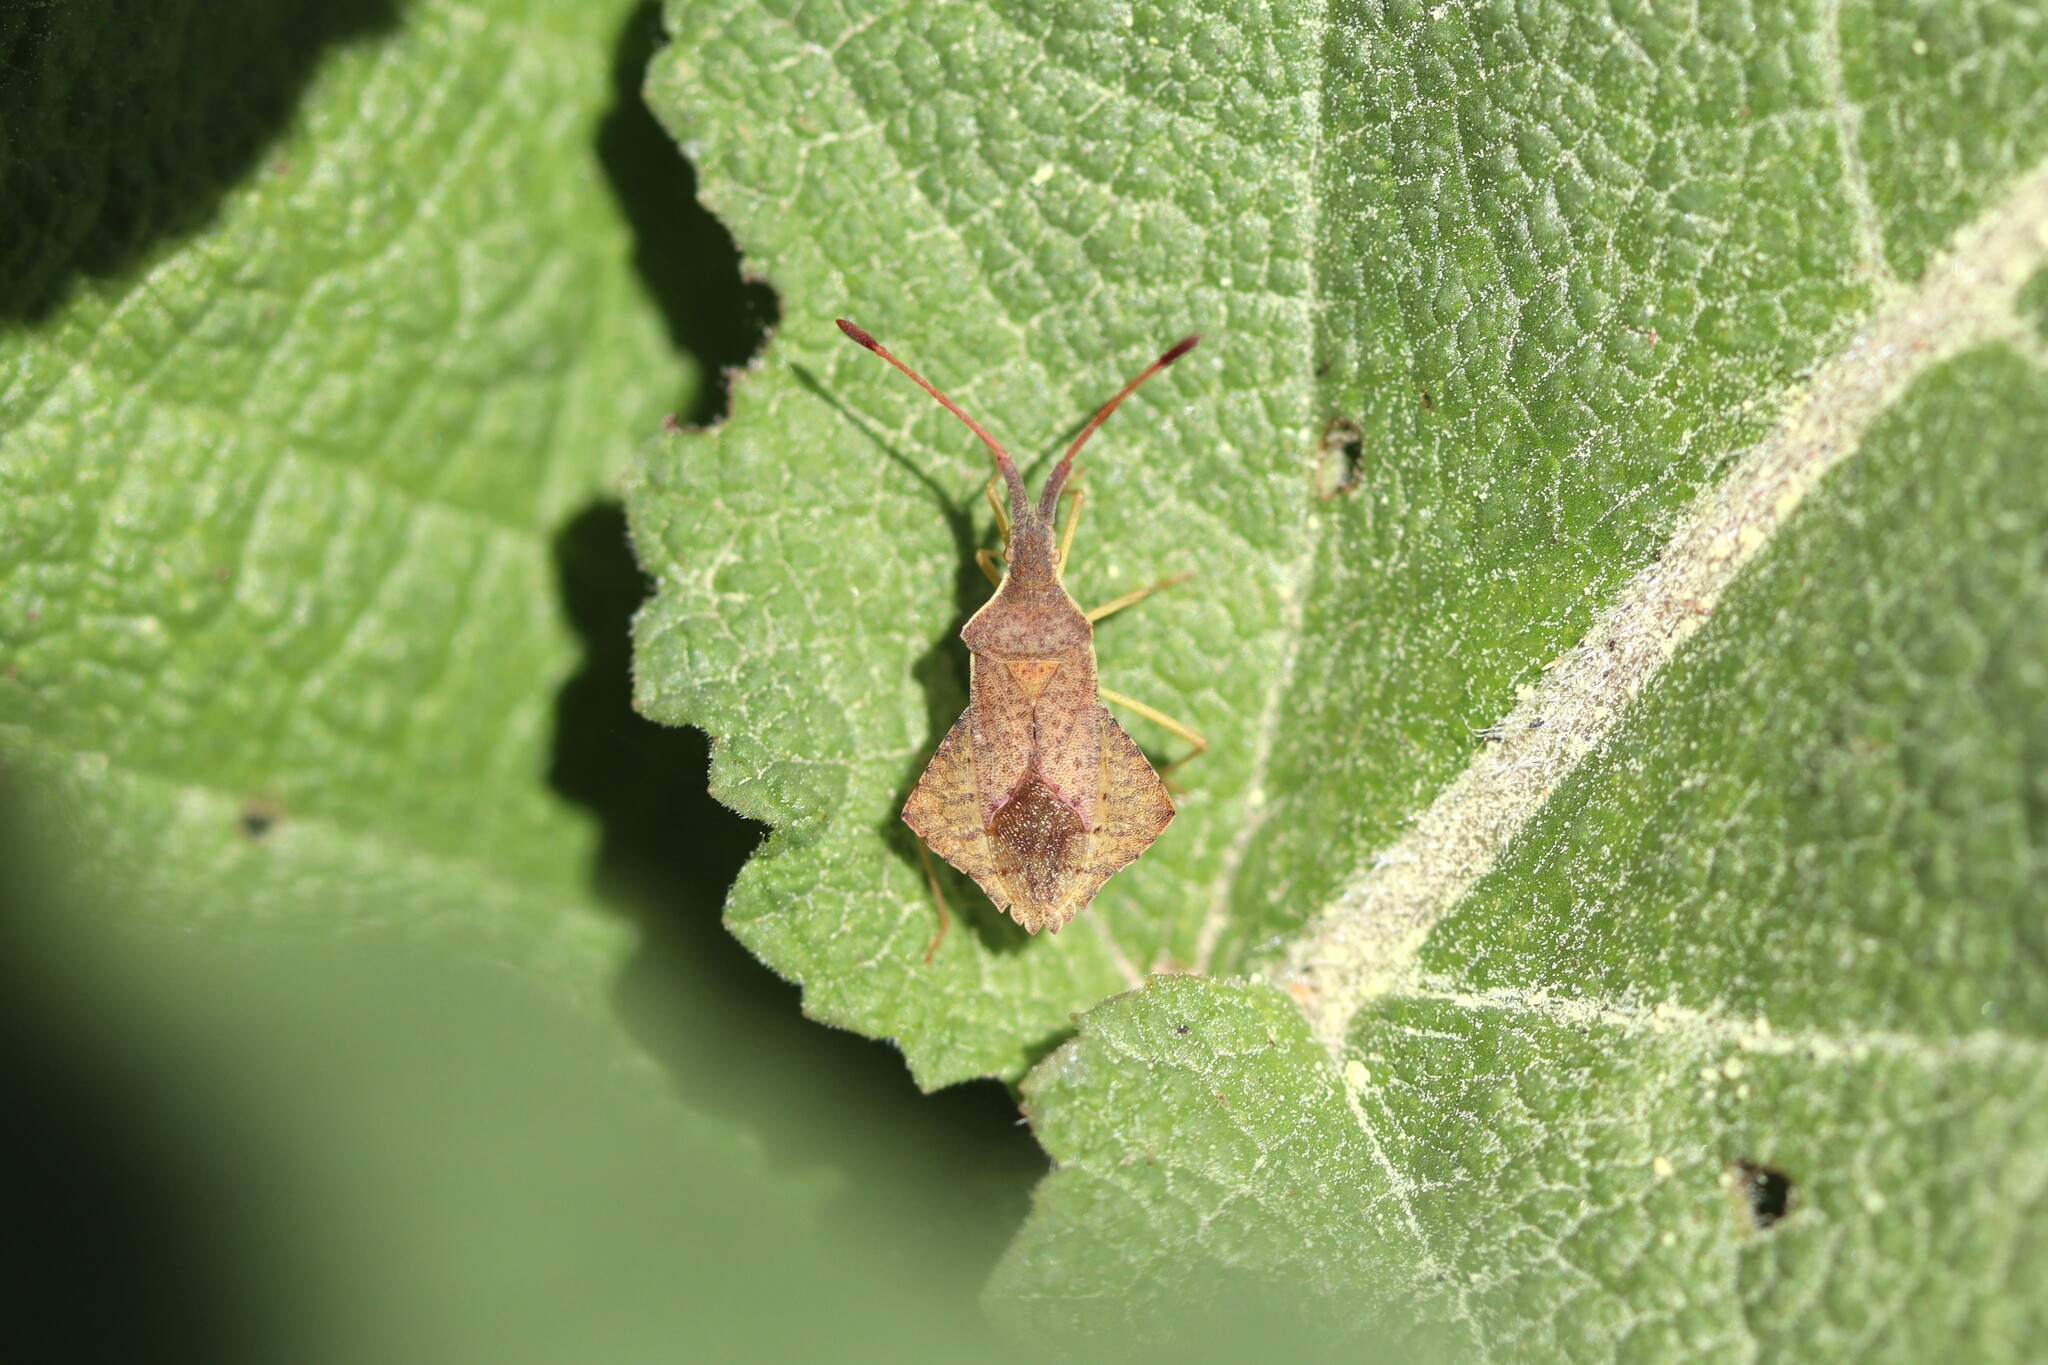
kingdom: Animalia
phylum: Arthropoda
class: Insecta
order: Hemiptera
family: Coreidae
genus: Syromastus
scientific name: Syromastus rhombeus
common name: Rhombic leatherbug
